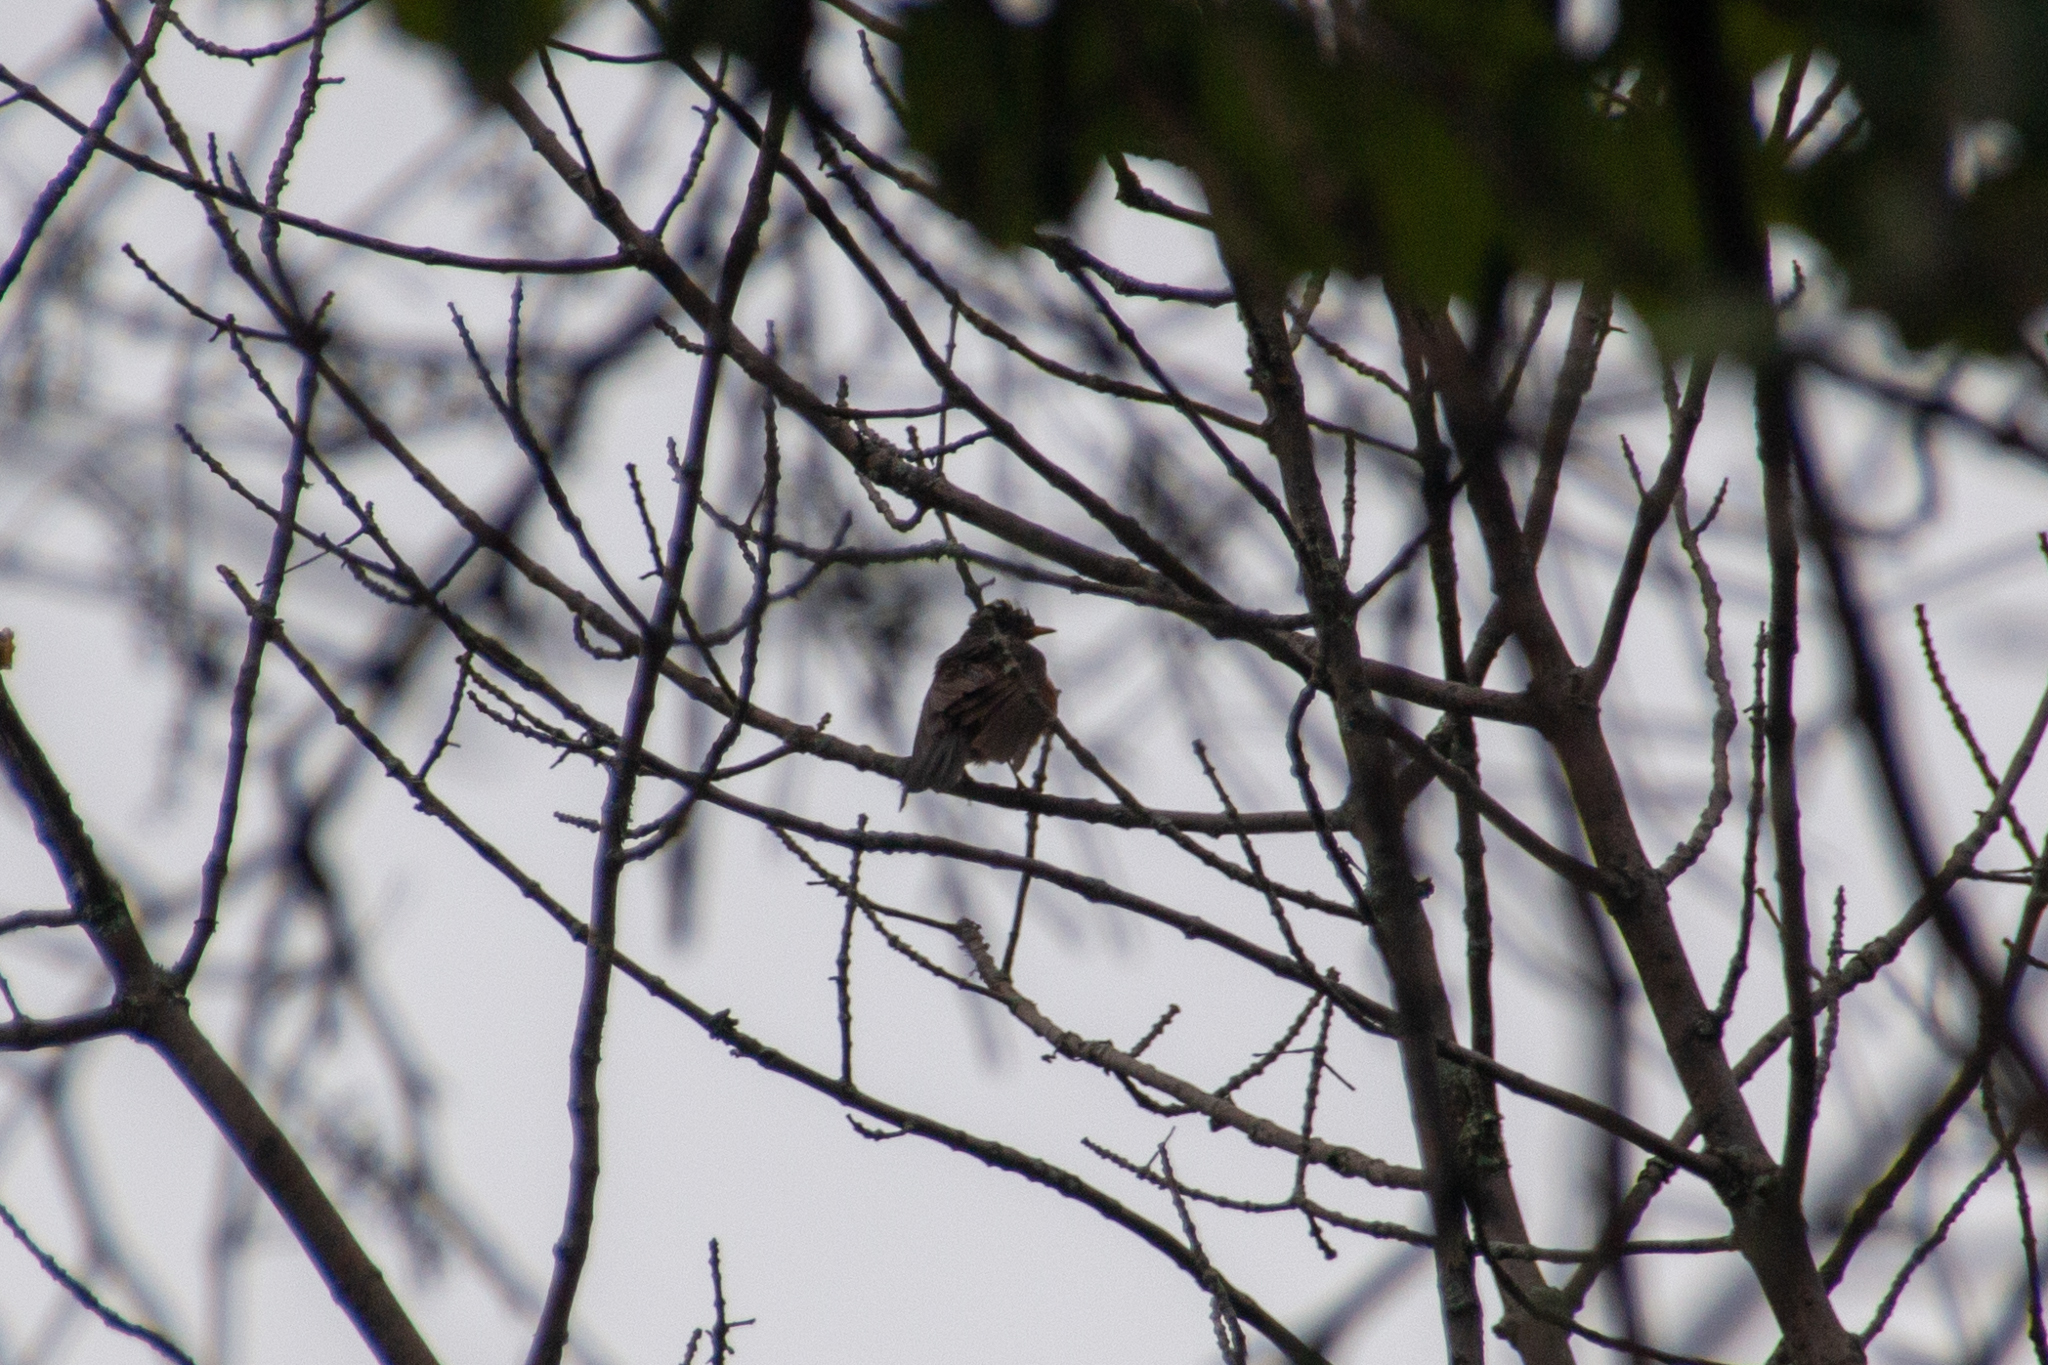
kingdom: Animalia
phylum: Chordata
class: Aves
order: Passeriformes
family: Turdidae
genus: Turdus
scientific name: Turdus migratorius
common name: American robin
